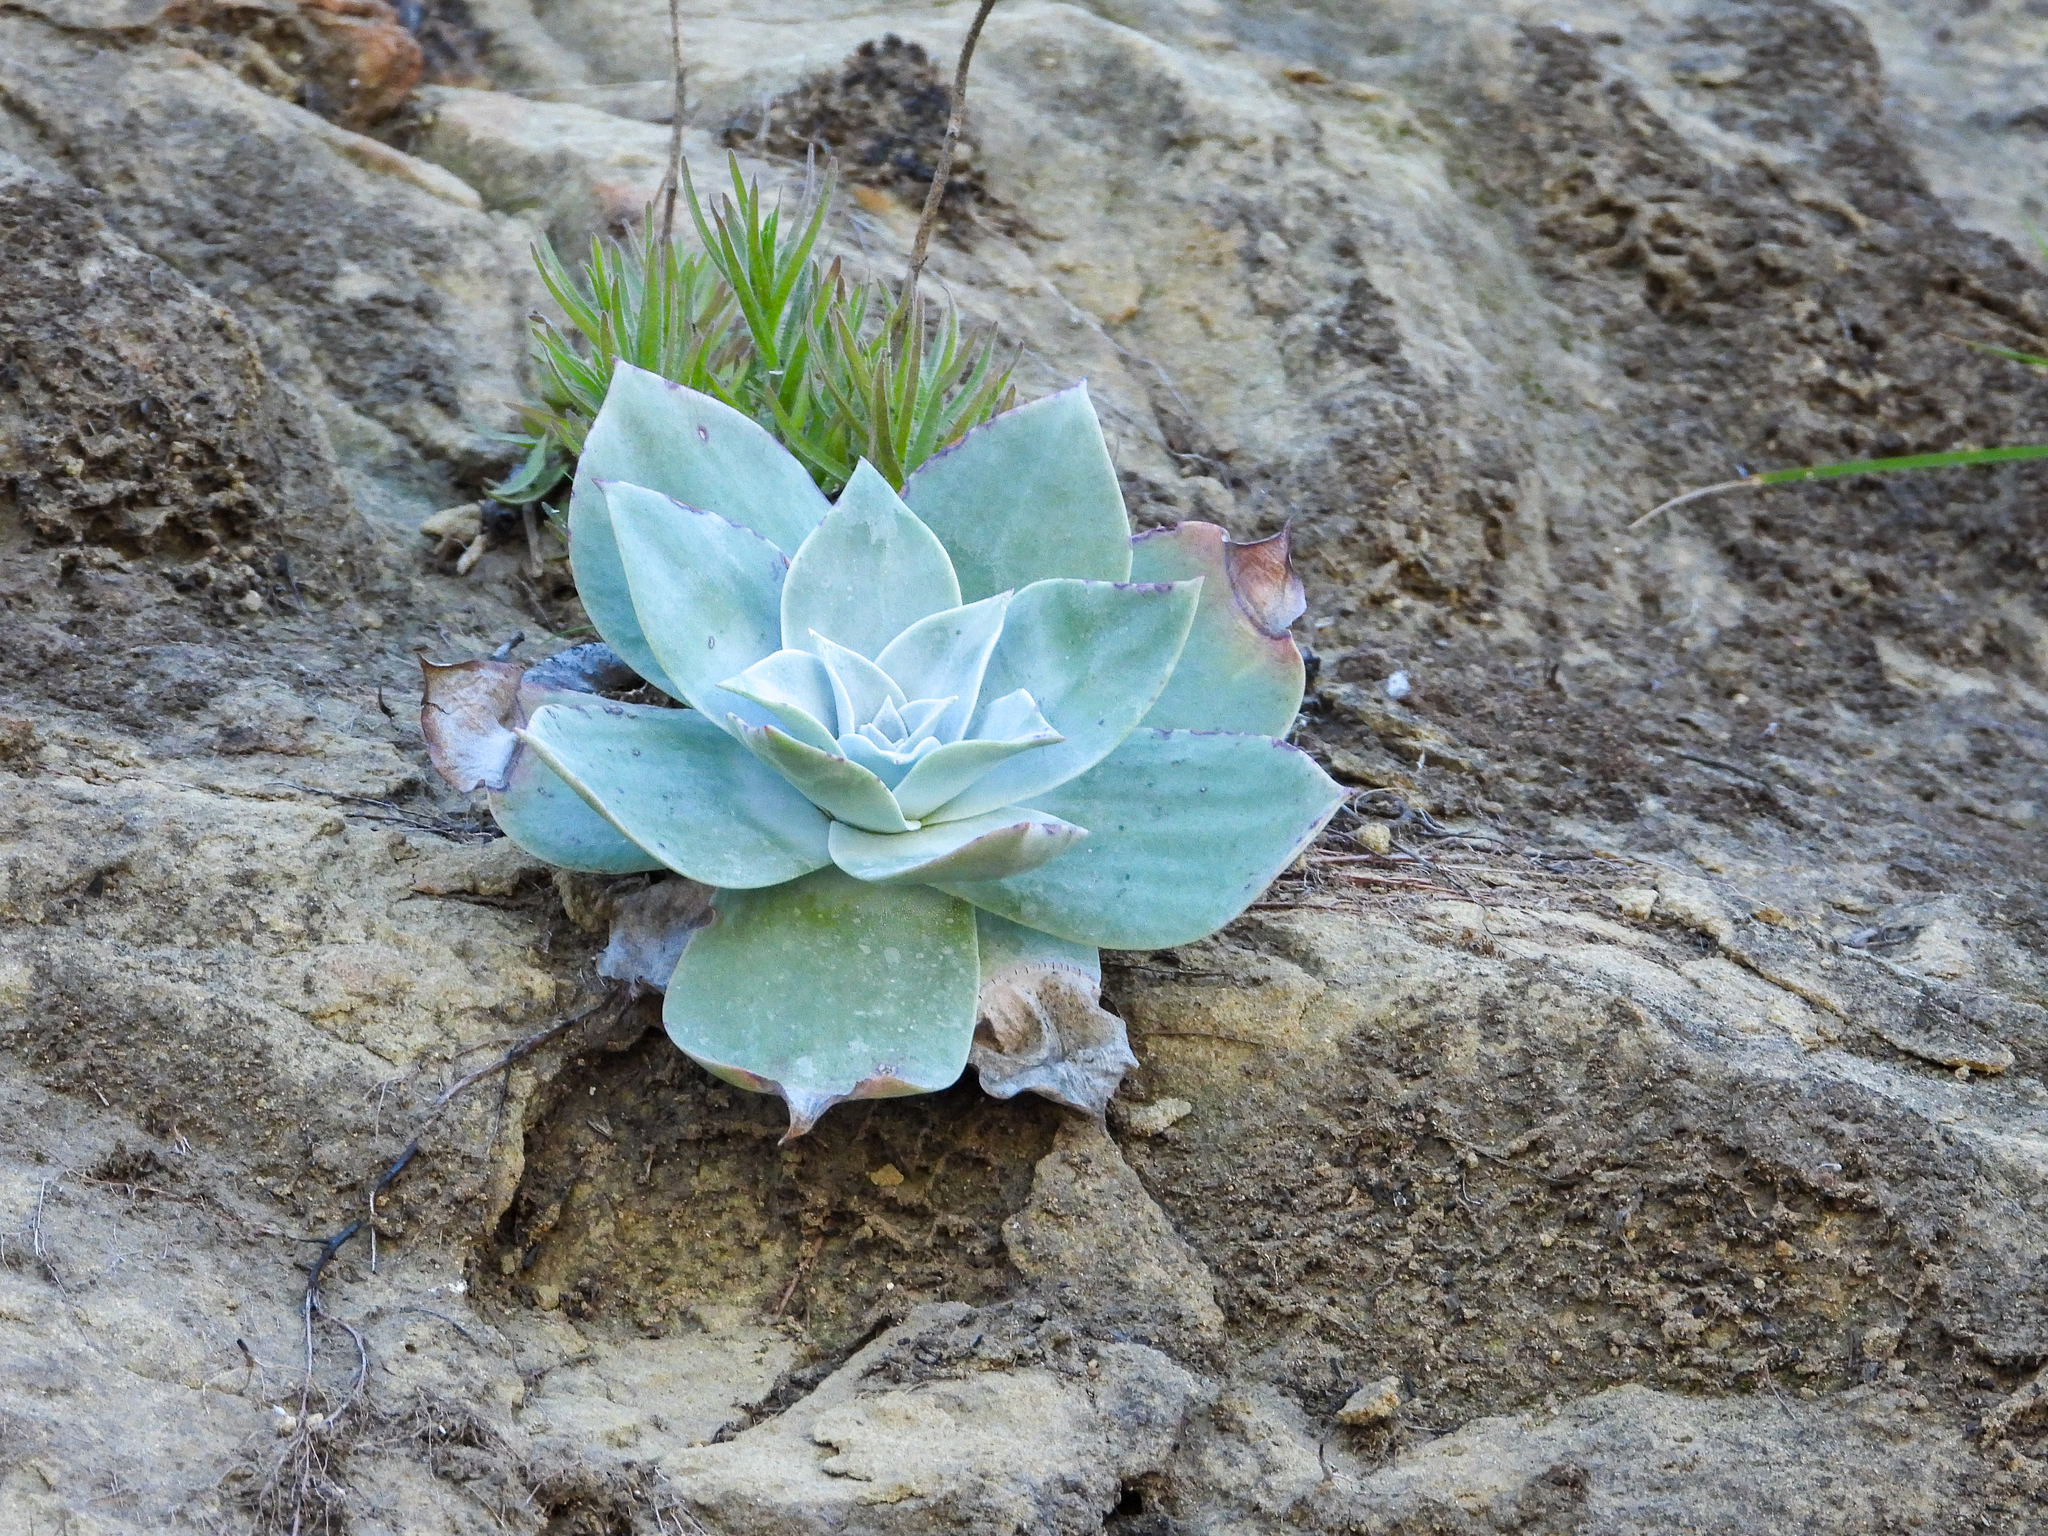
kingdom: Plantae
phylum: Tracheophyta
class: Magnoliopsida
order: Saxifragales
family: Crassulaceae
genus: Dudleya
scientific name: Dudleya pulverulenta
